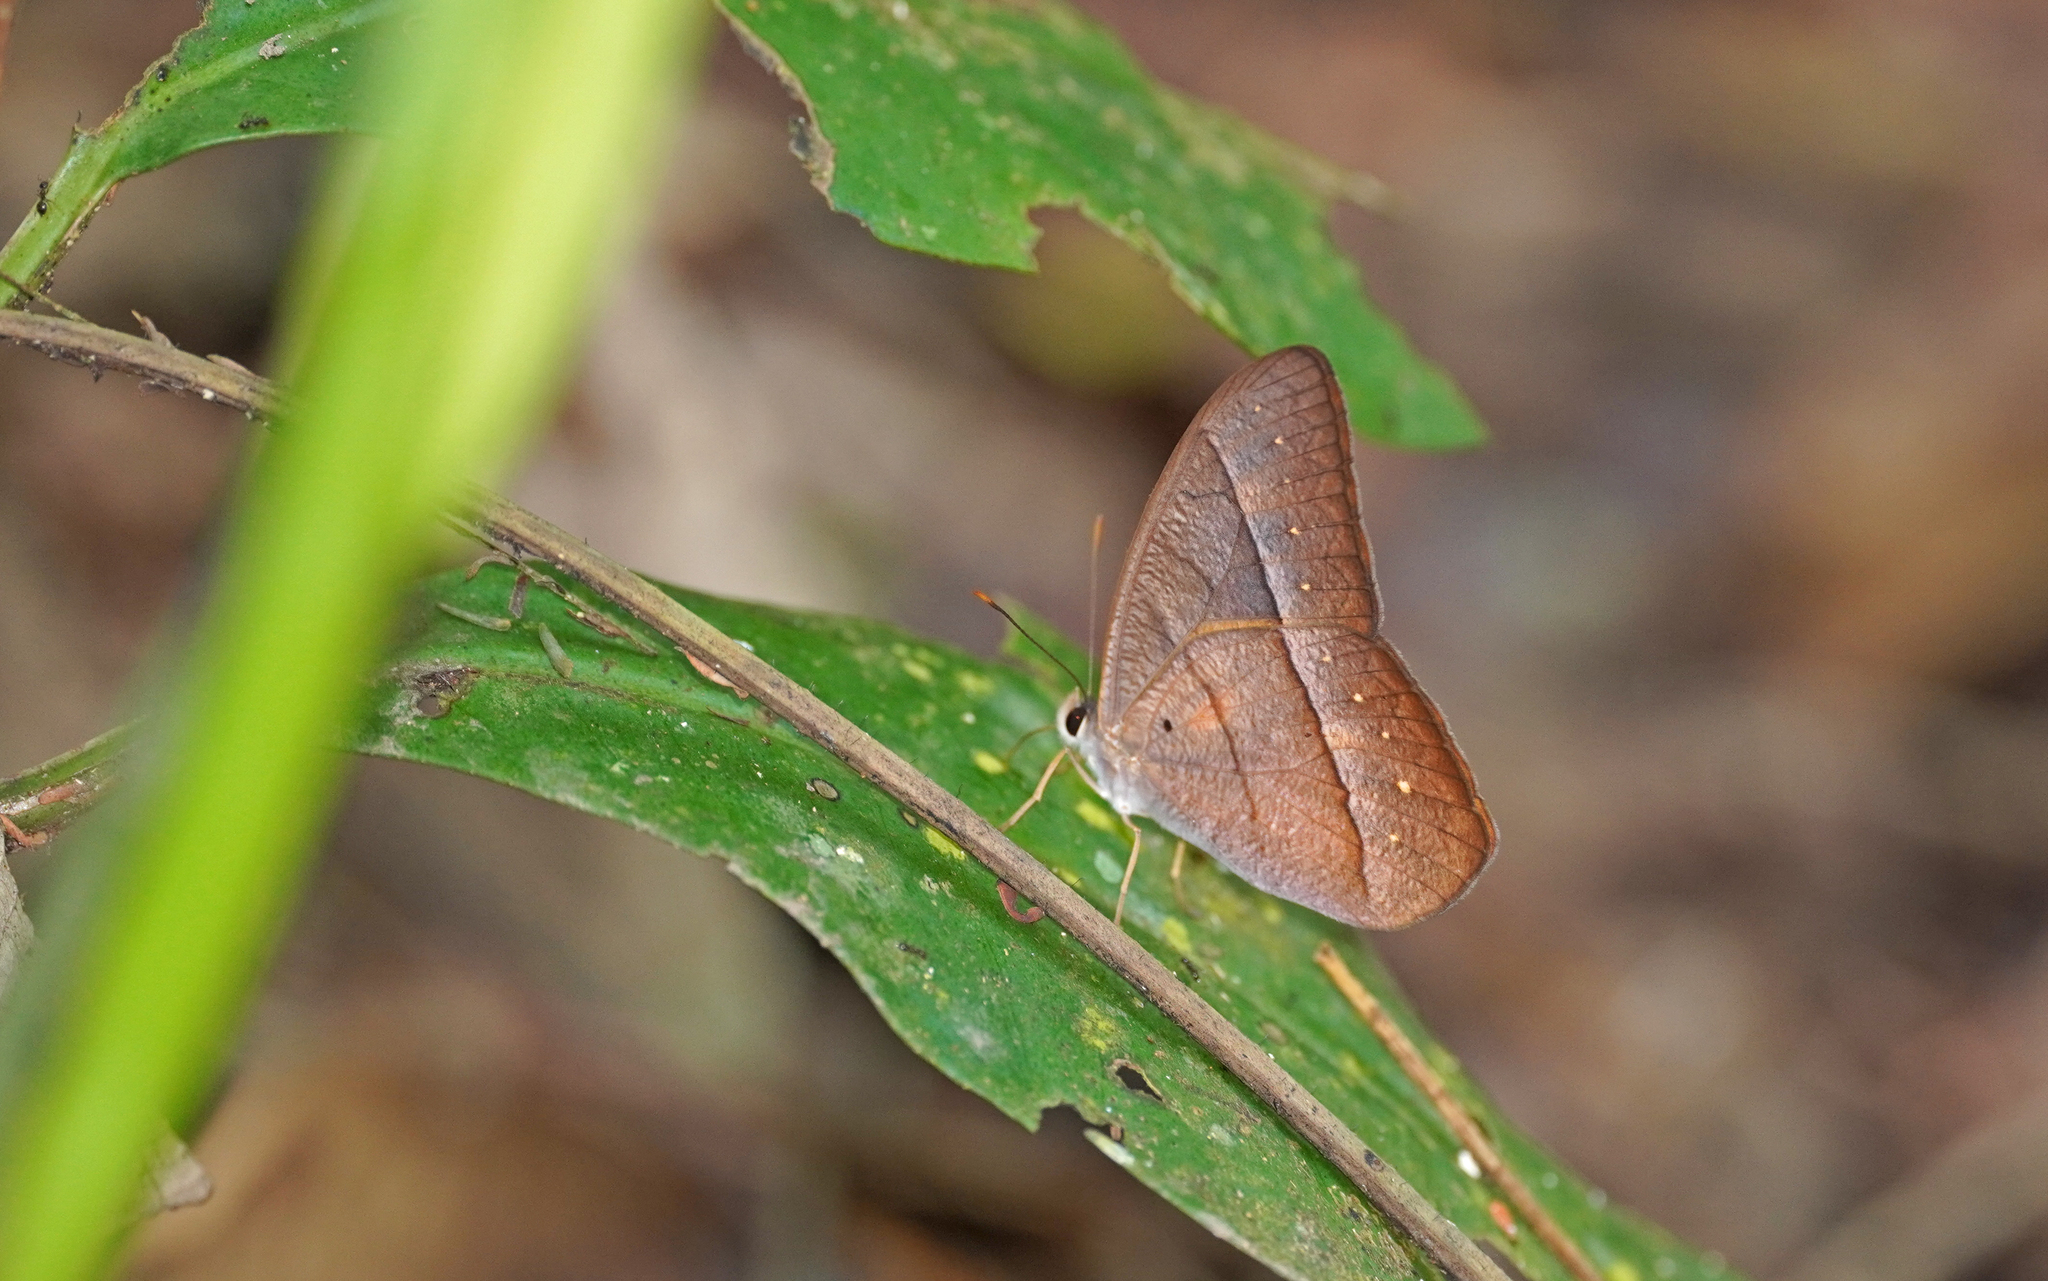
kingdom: Animalia
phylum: Arthropoda
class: Insecta
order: Lepidoptera
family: Nymphalidae
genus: Antirrhea
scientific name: Antirrhea taygetina
